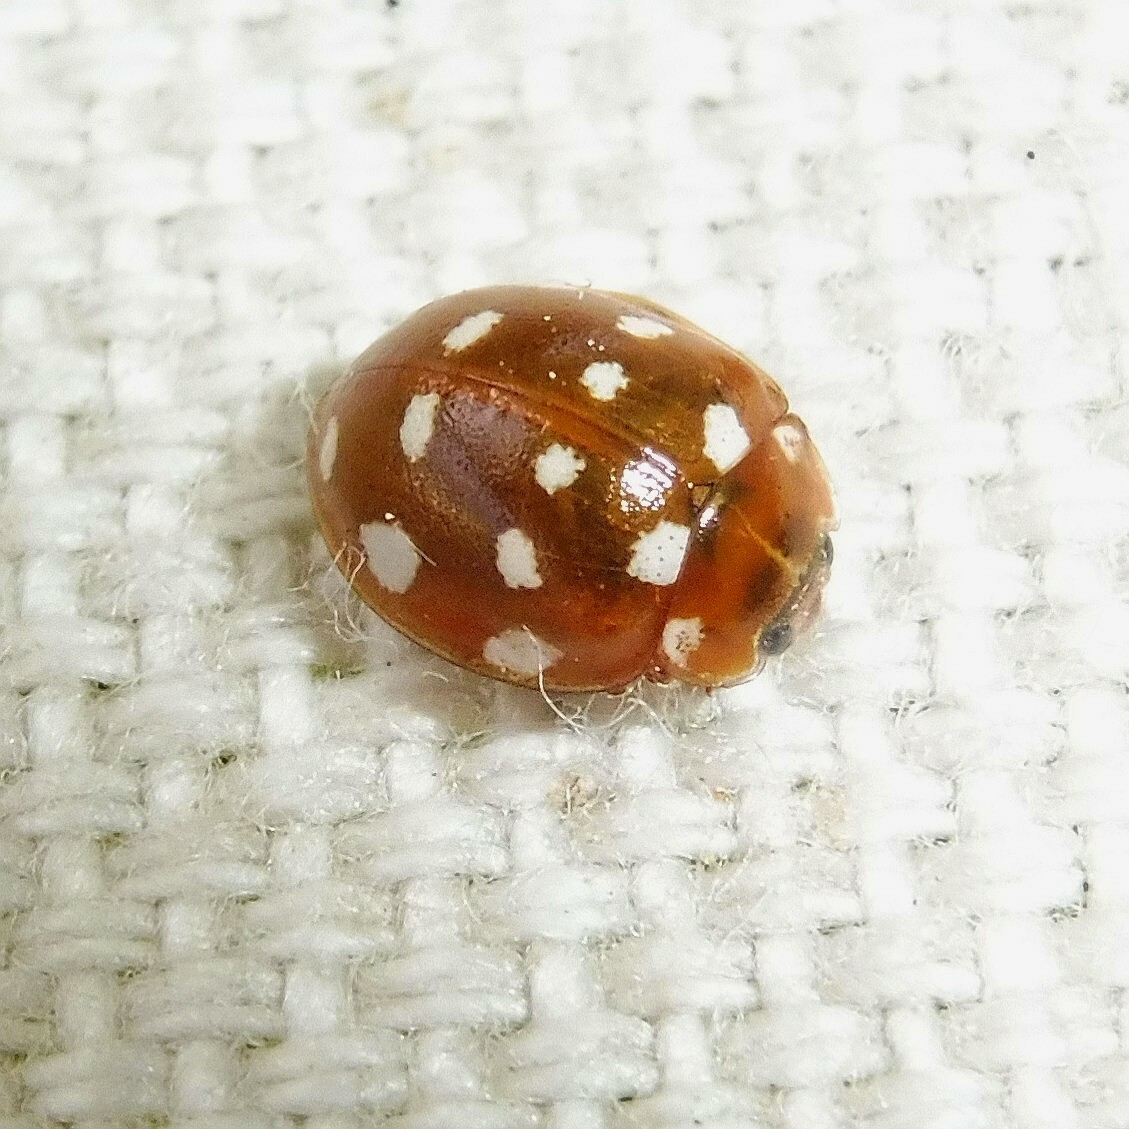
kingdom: Animalia
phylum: Arthropoda
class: Insecta
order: Coleoptera
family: Coccinellidae
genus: Calvia
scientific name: Calvia quatuordecimguttata
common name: Cream-spot ladybird
